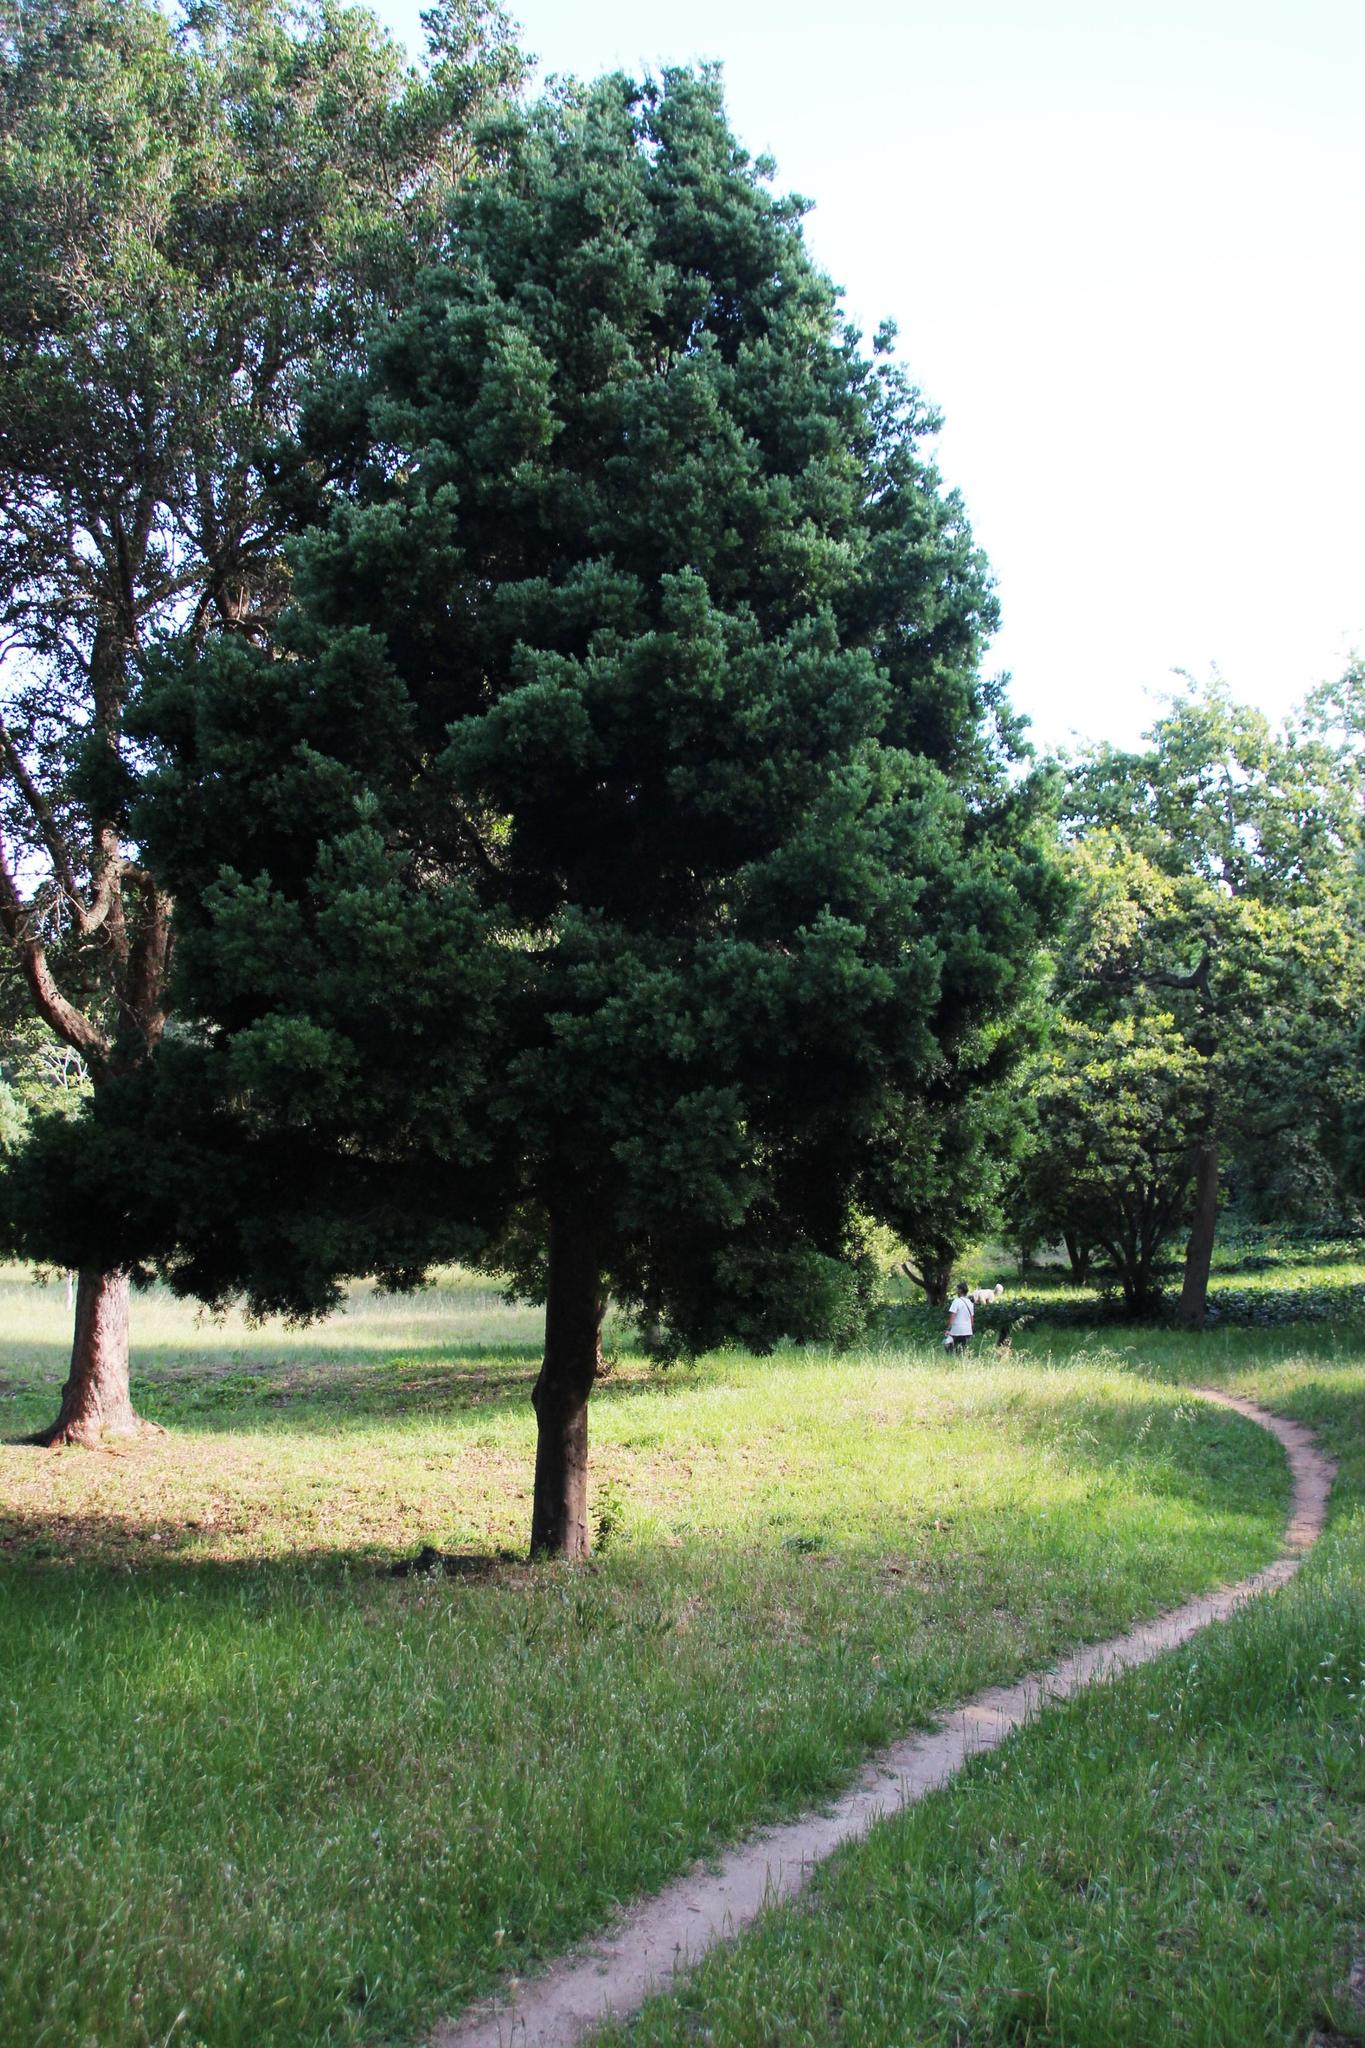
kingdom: Plantae
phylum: Tracheophyta
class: Pinopsida
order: Pinales
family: Podocarpaceae
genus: Afrocarpus
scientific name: Afrocarpus falcatus
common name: Bastard yellowwood
